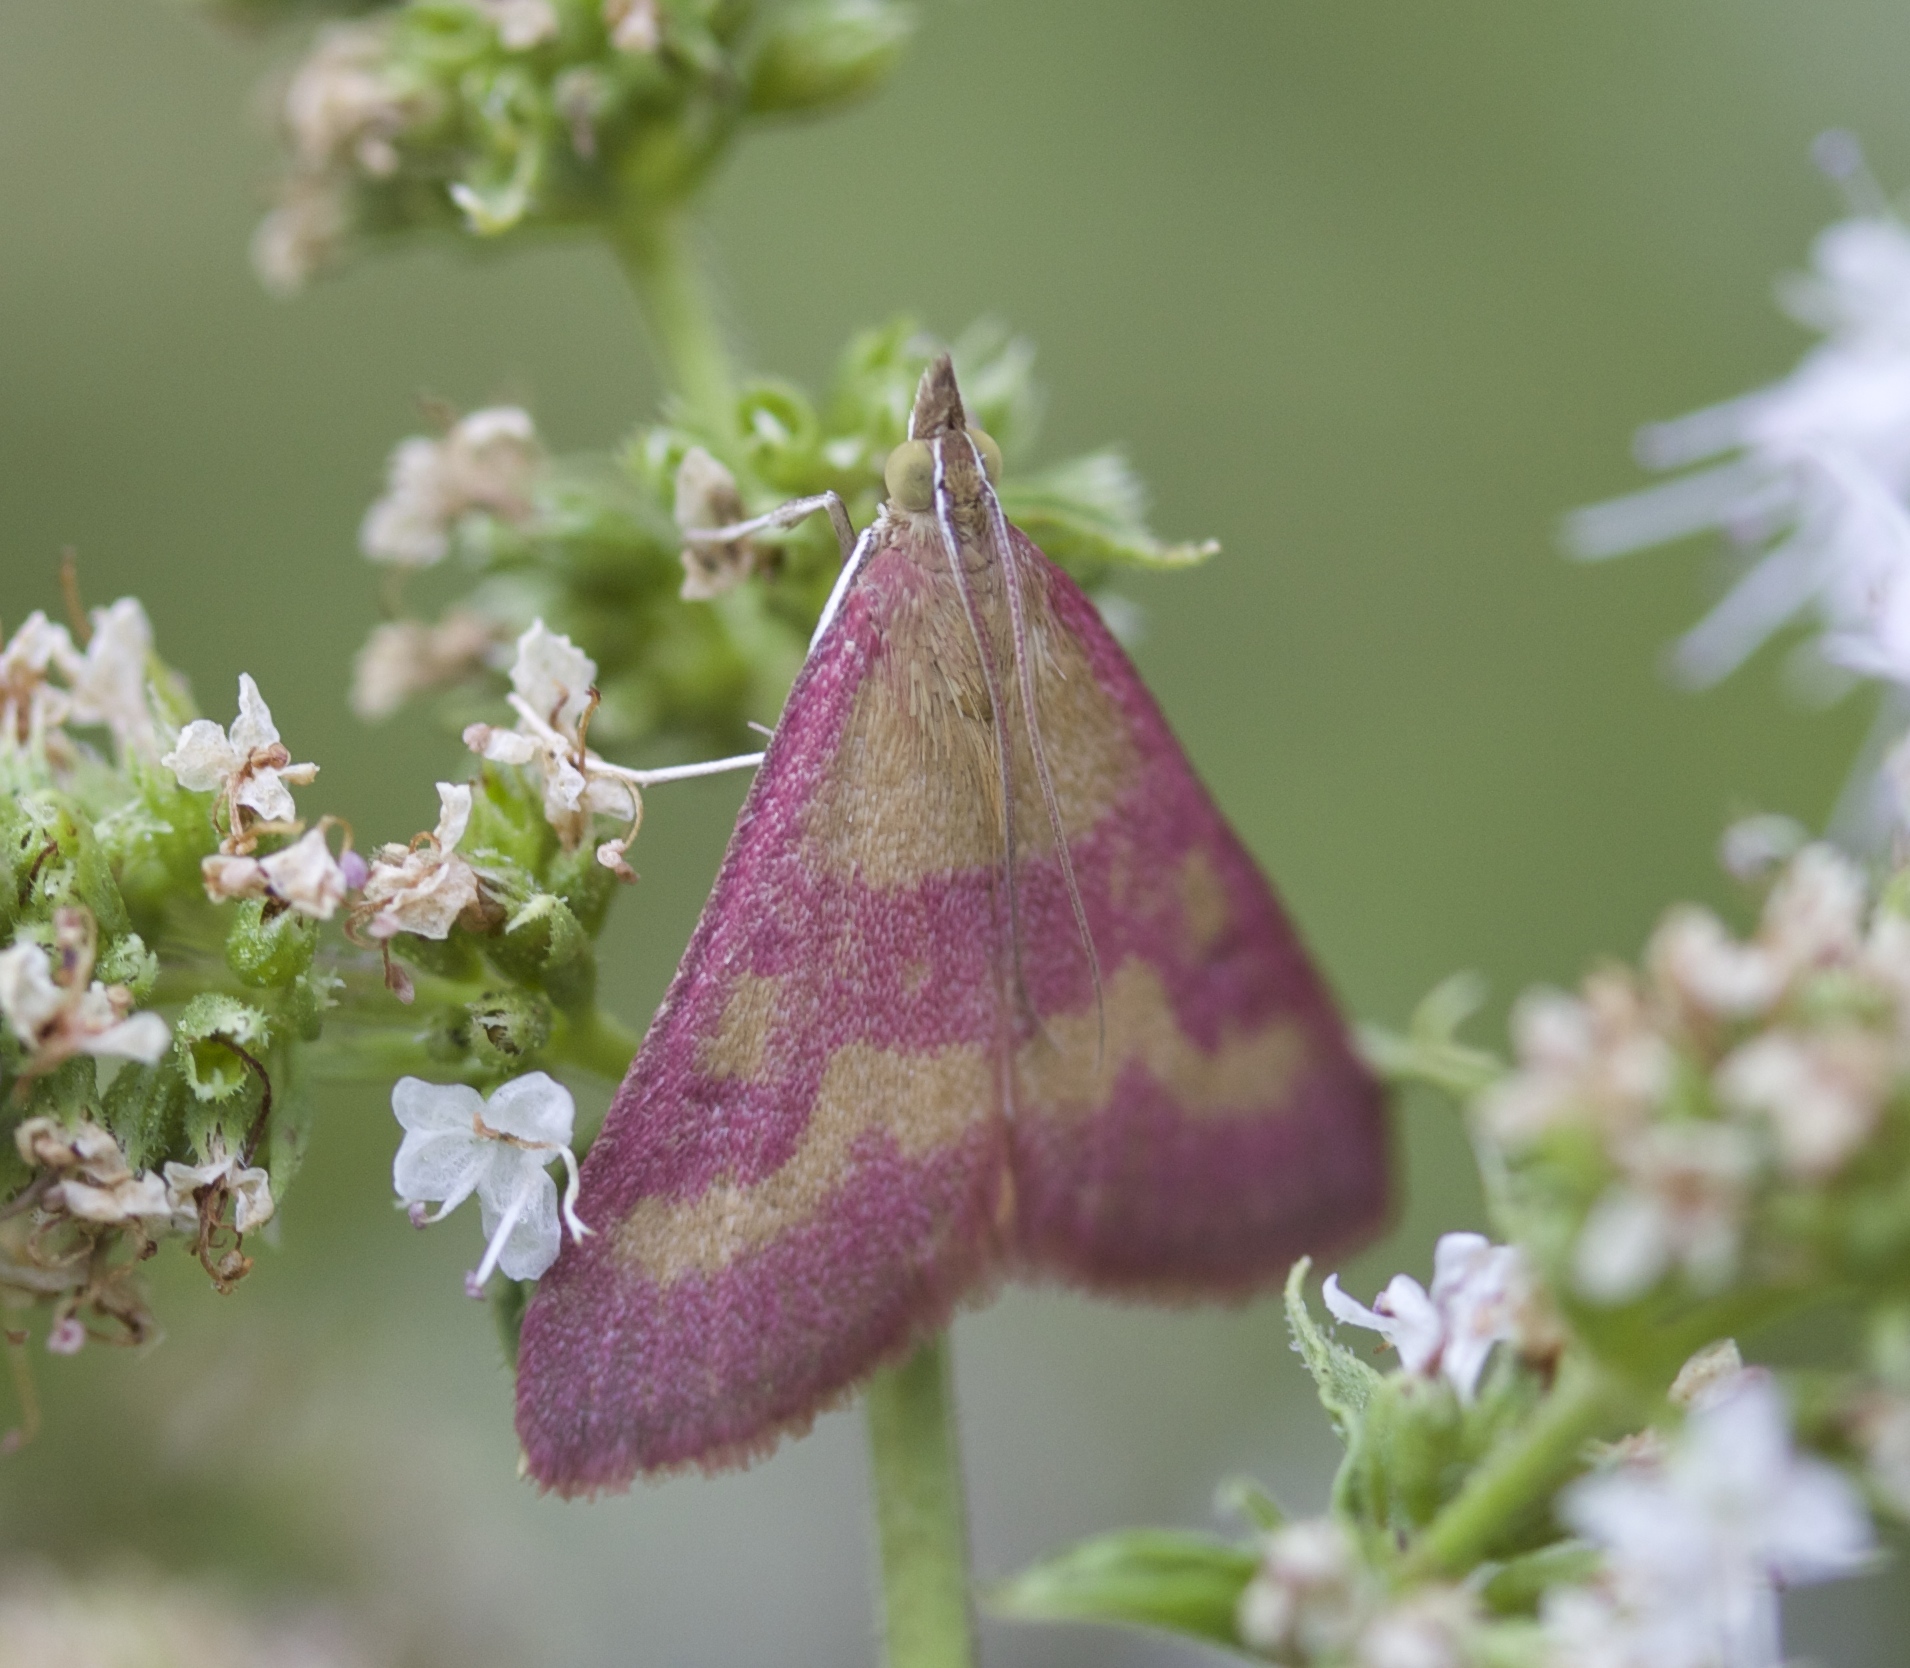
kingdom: Animalia
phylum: Arthropoda
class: Insecta
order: Lepidoptera
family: Crambidae
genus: Pyrausta
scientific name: Pyrausta laticlavia
